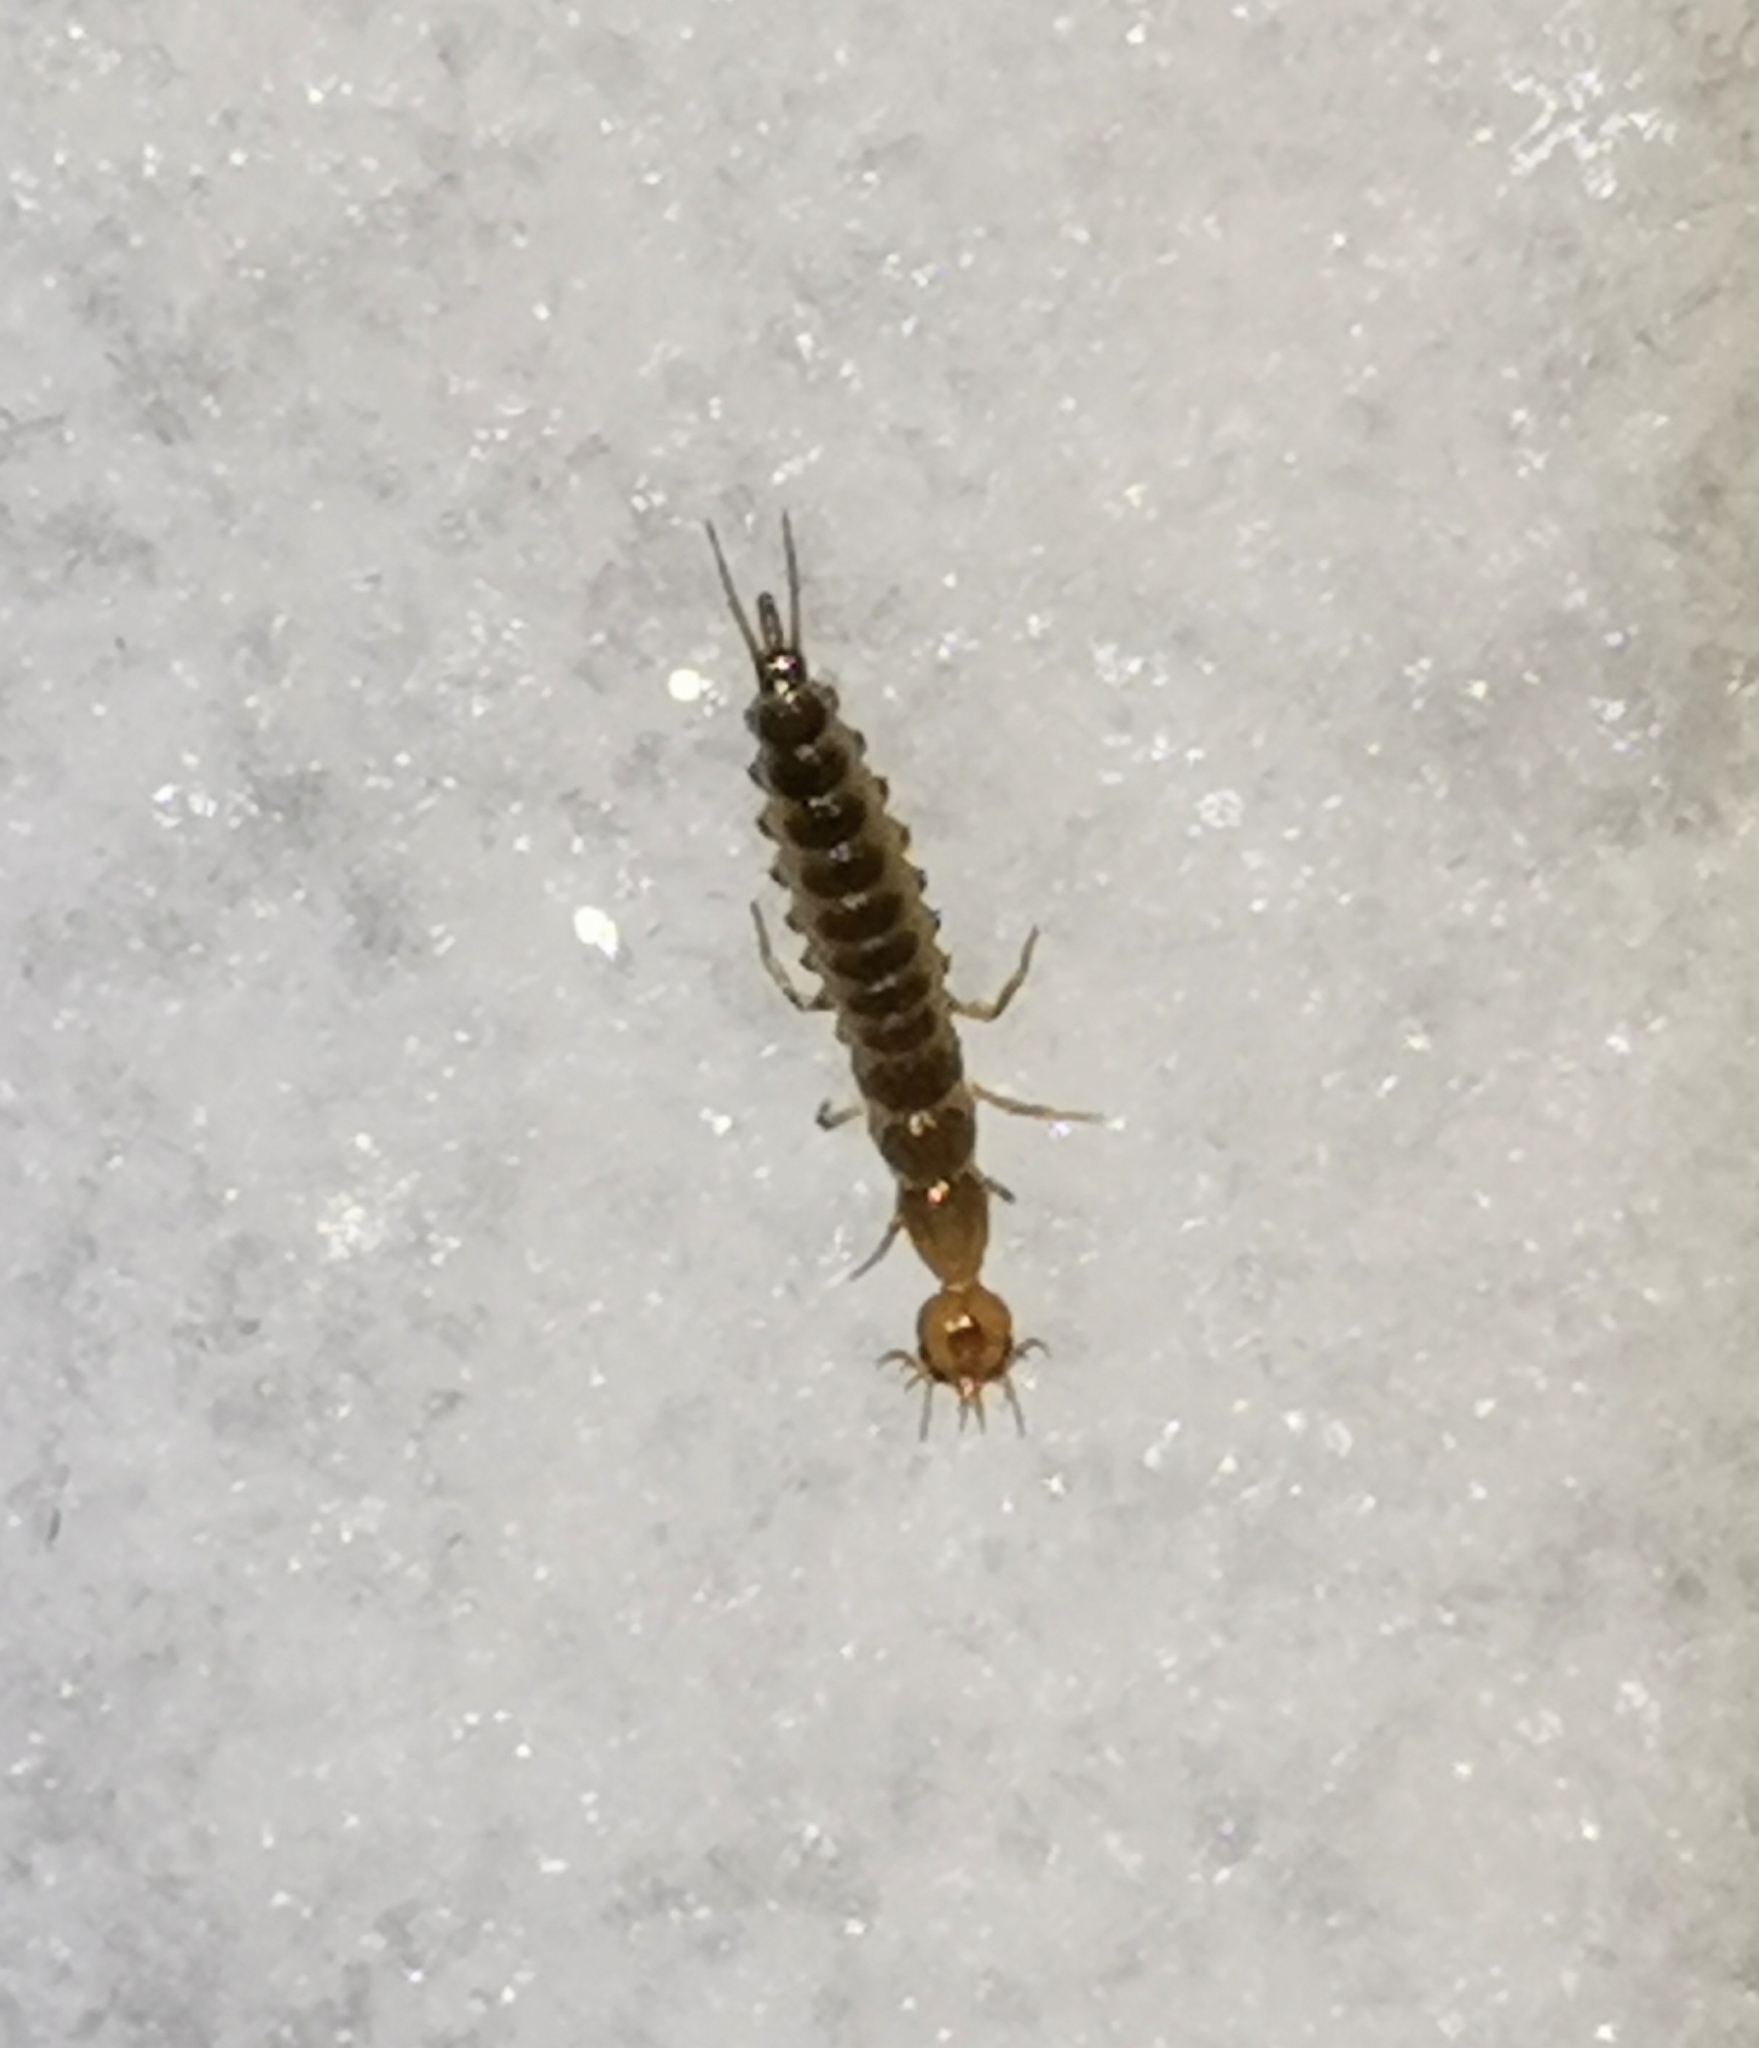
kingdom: Animalia
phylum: Arthropoda
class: Insecta
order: Coleoptera
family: Carabidae
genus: Leistus
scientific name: Leistus
